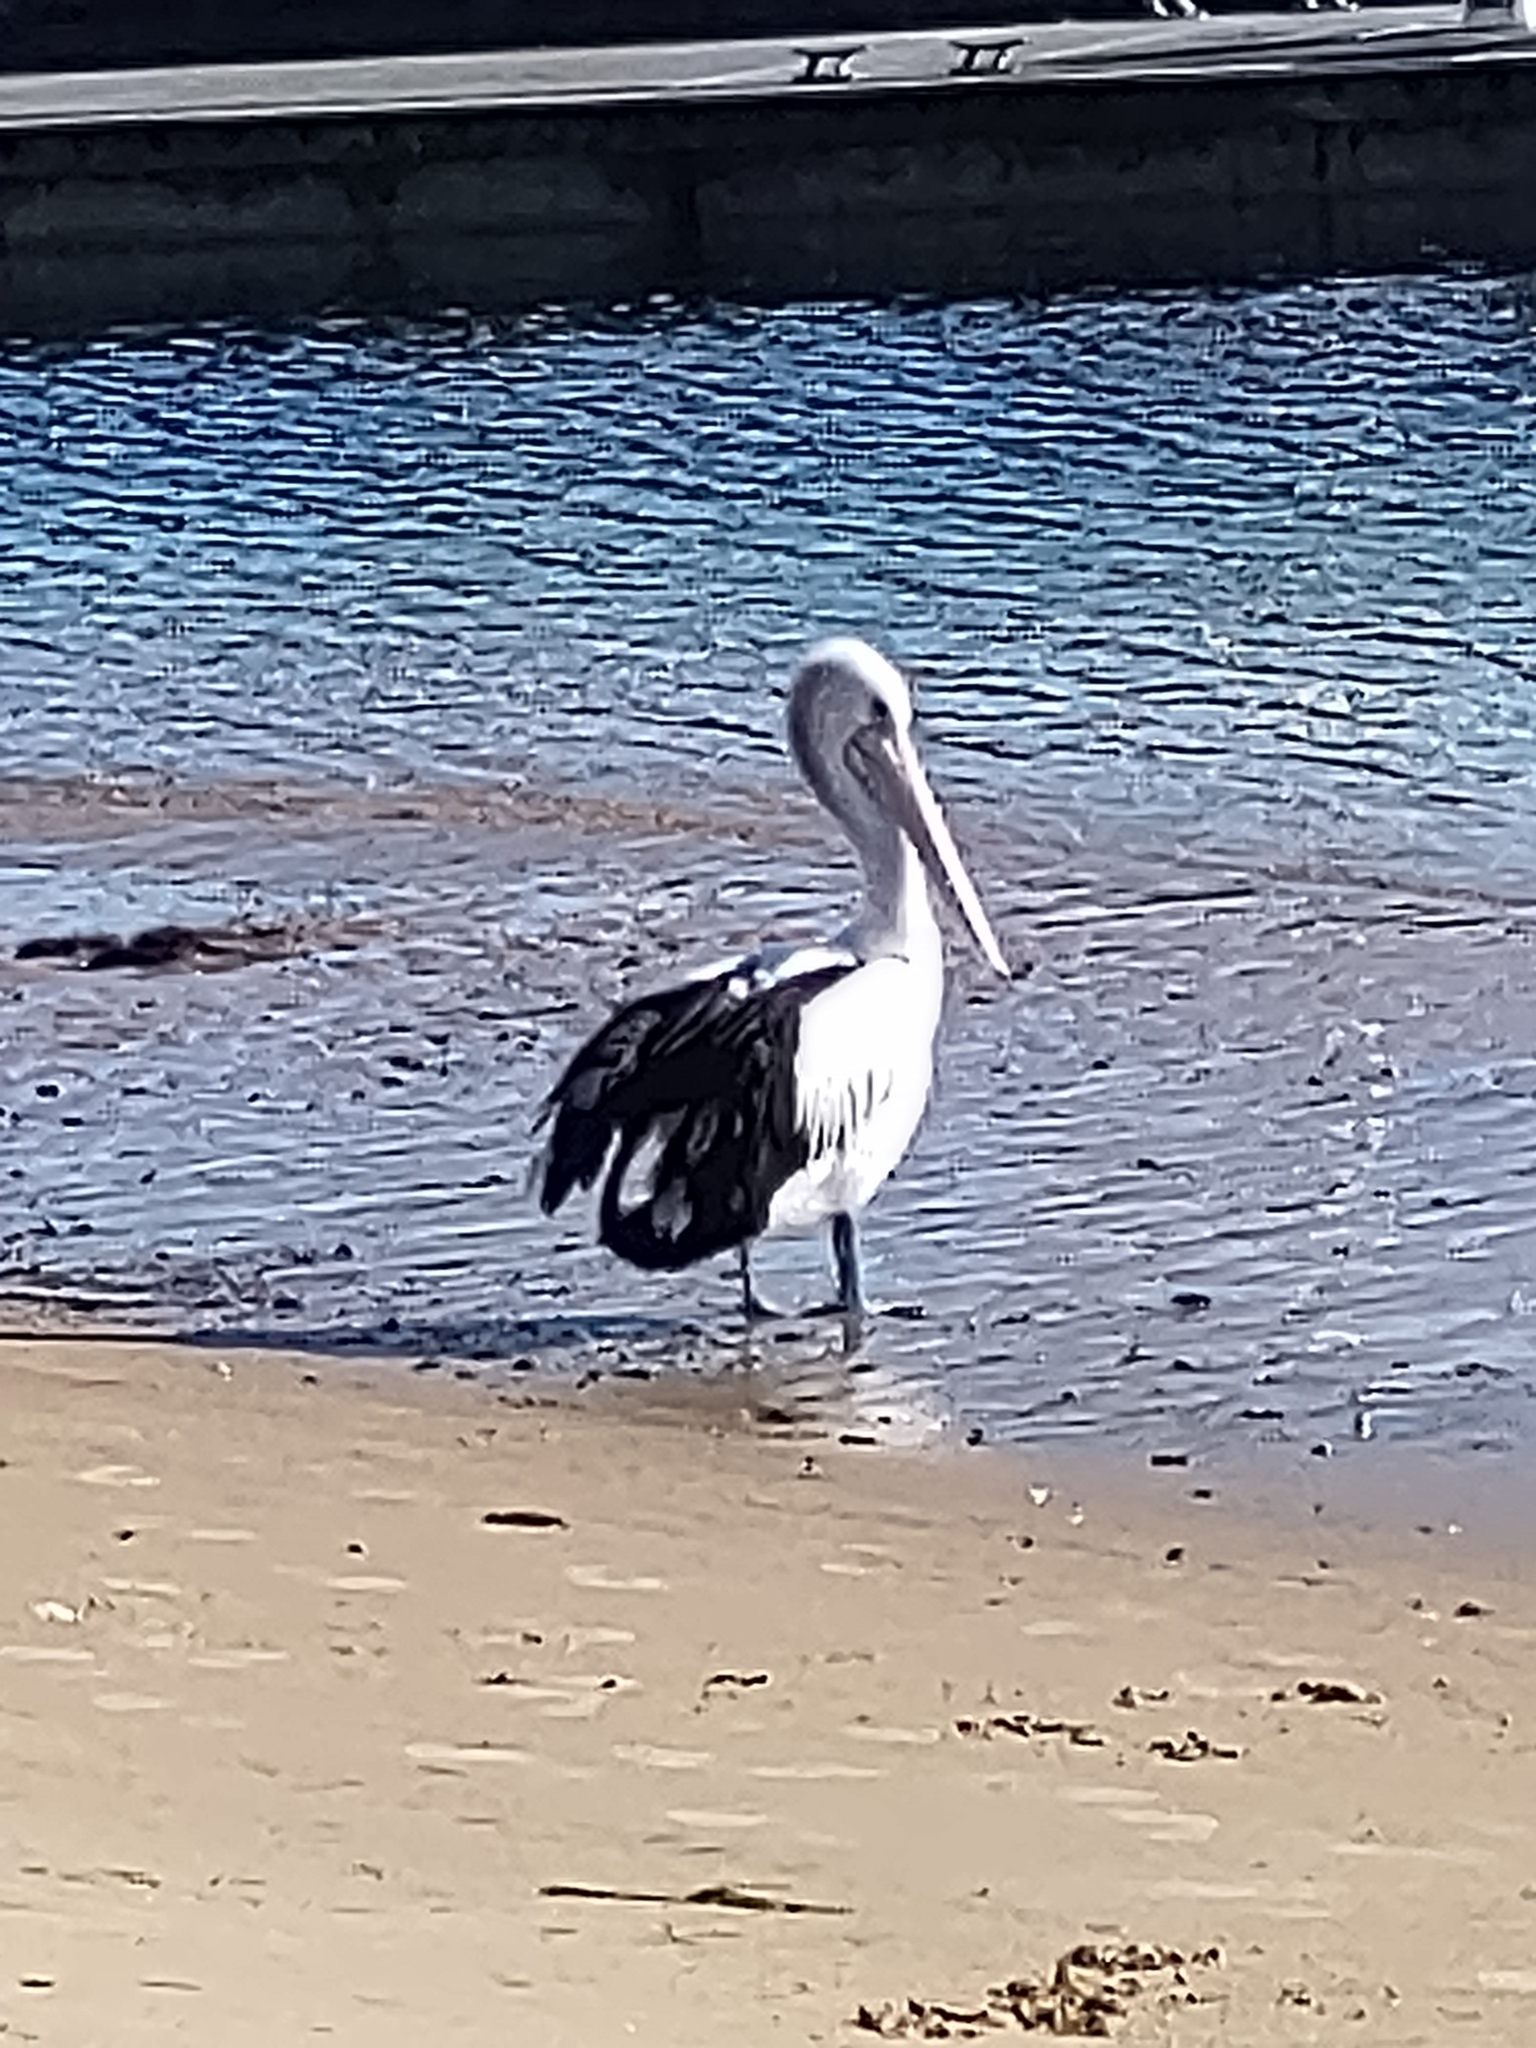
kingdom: Animalia
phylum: Chordata
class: Aves
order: Pelecaniformes
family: Pelecanidae
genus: Pelecanus
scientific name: Pelecanus conspicillatus
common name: Australian pelican
